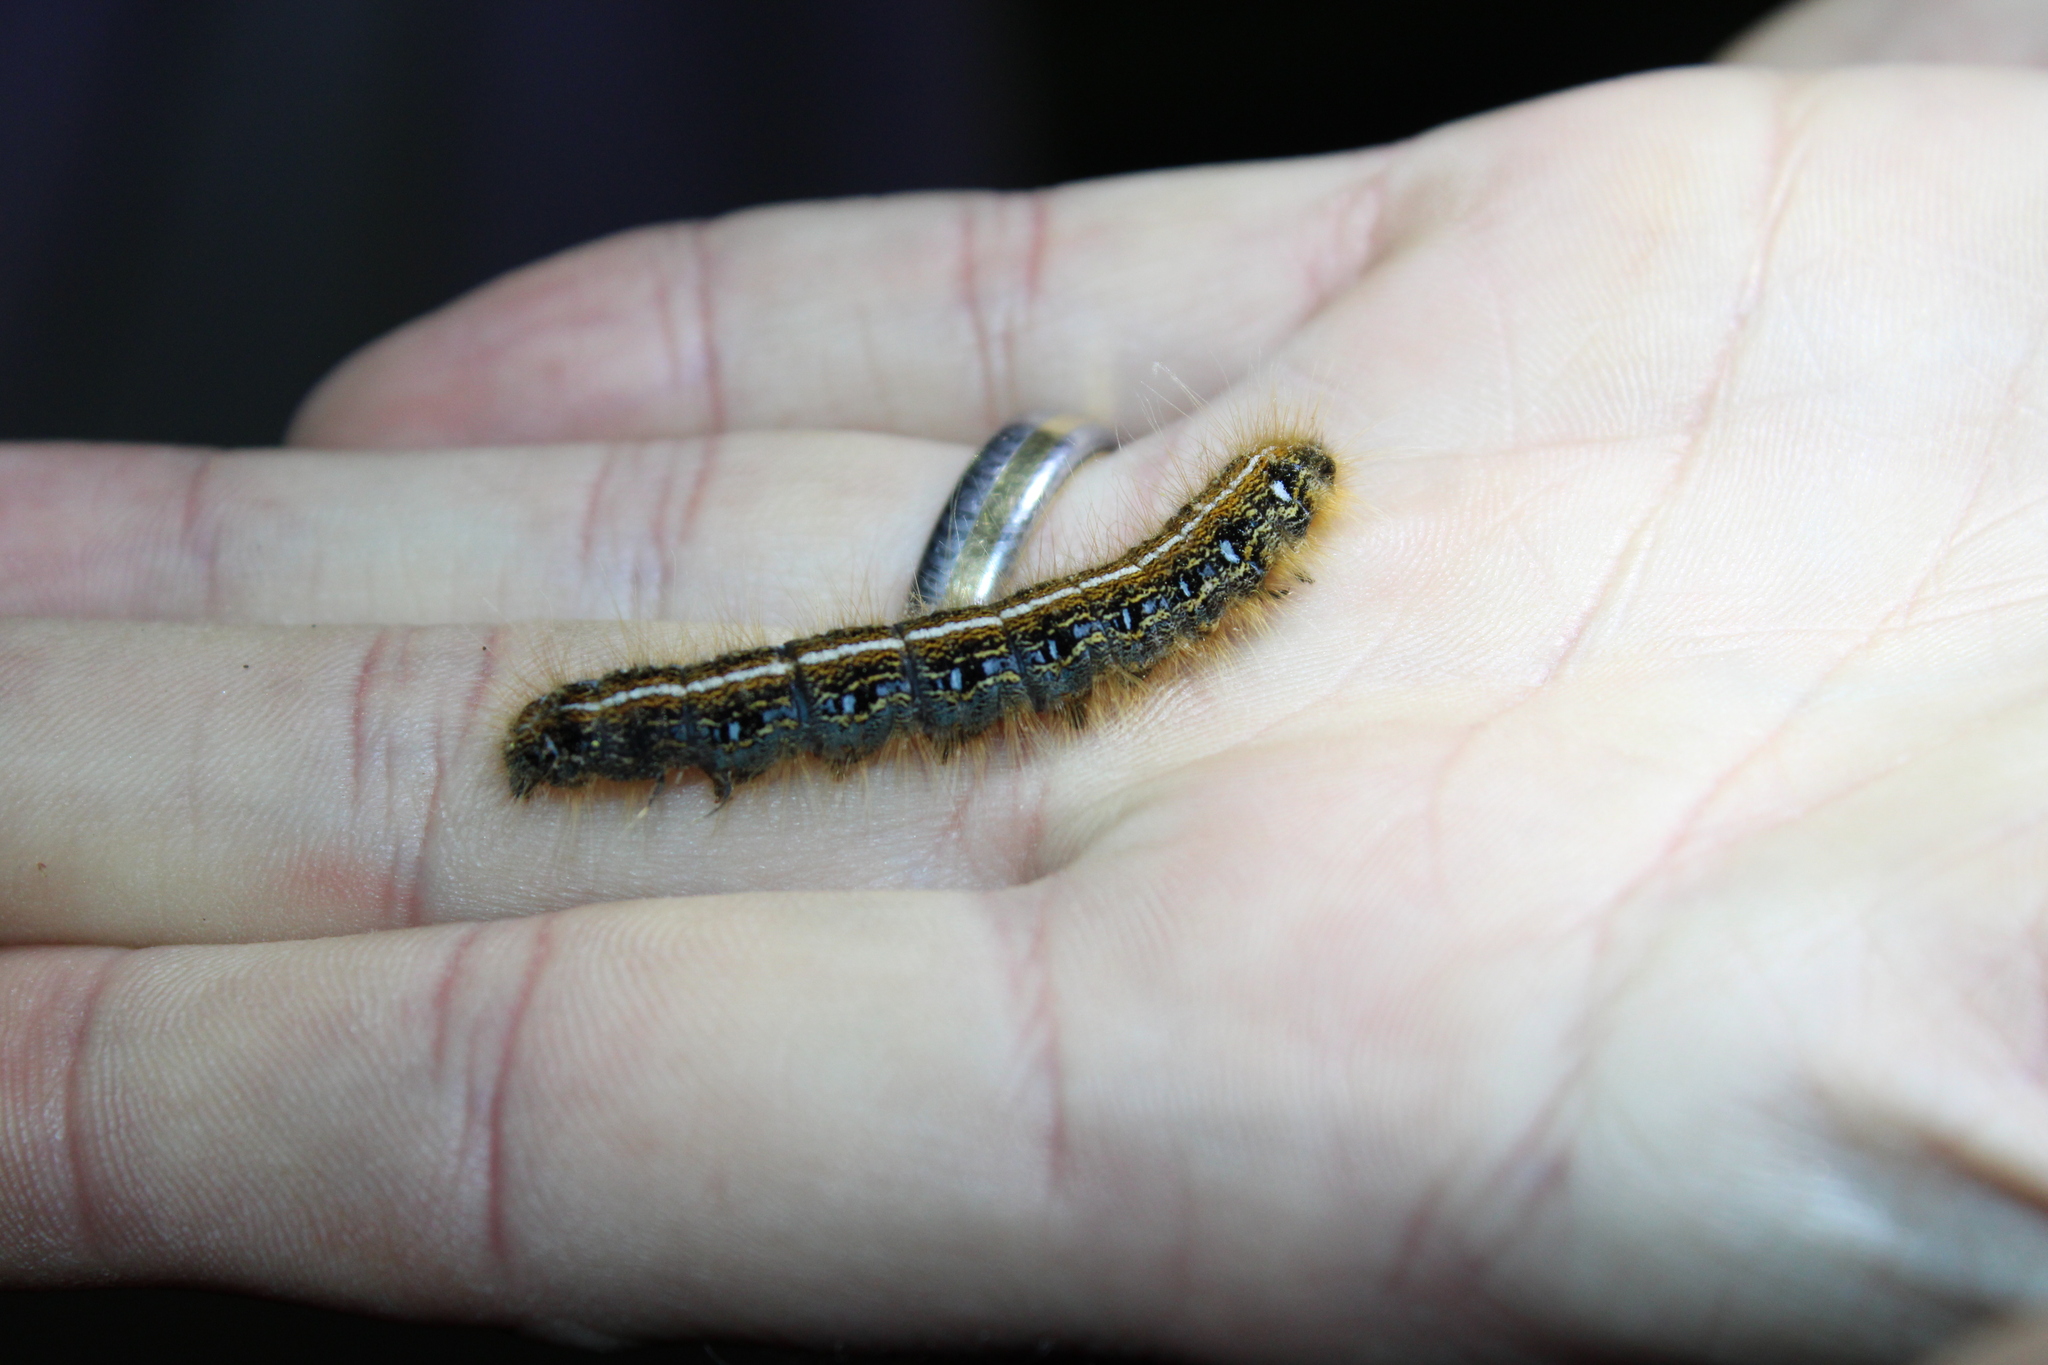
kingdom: Animalia
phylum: Arthropoda
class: Insecta
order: Lepidoptera
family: Lasiocampidae
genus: Malacosoma
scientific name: Malacosoma americana
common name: Eastern tent caterpillar moth
